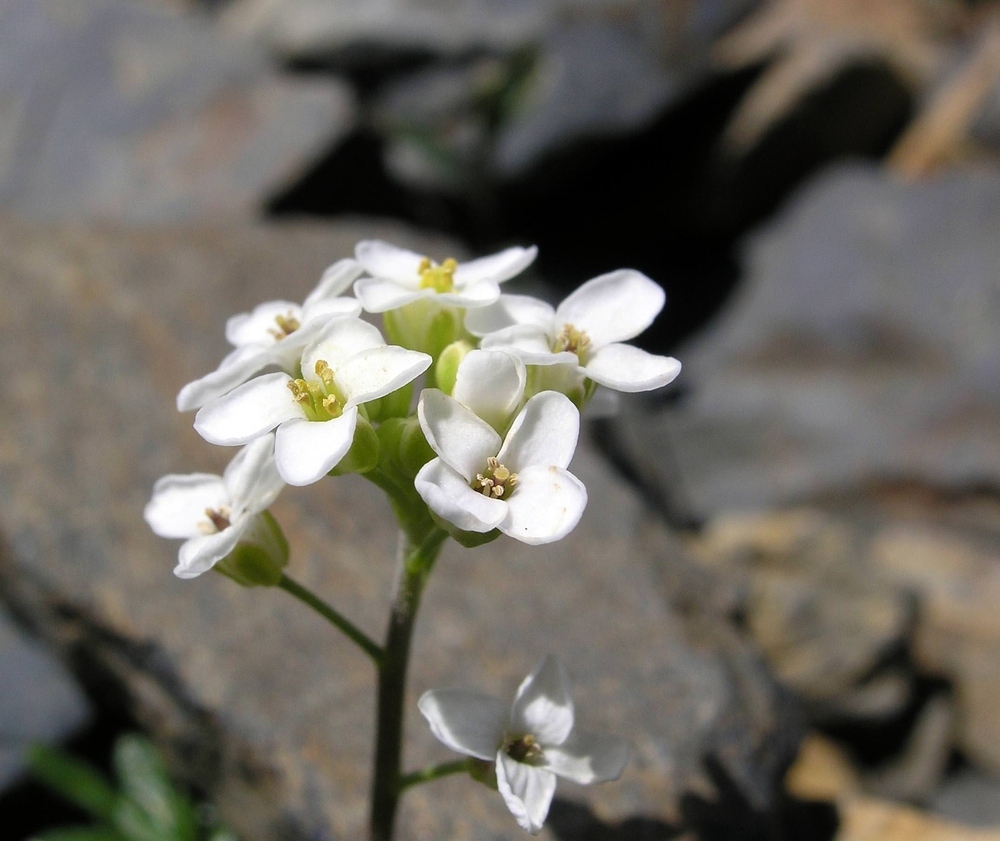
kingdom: Plantae
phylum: Tracheophyta
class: Magnoliopsida
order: Brassicales
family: Brassicaceae
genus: Hornungia
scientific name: Hornungia alpina
